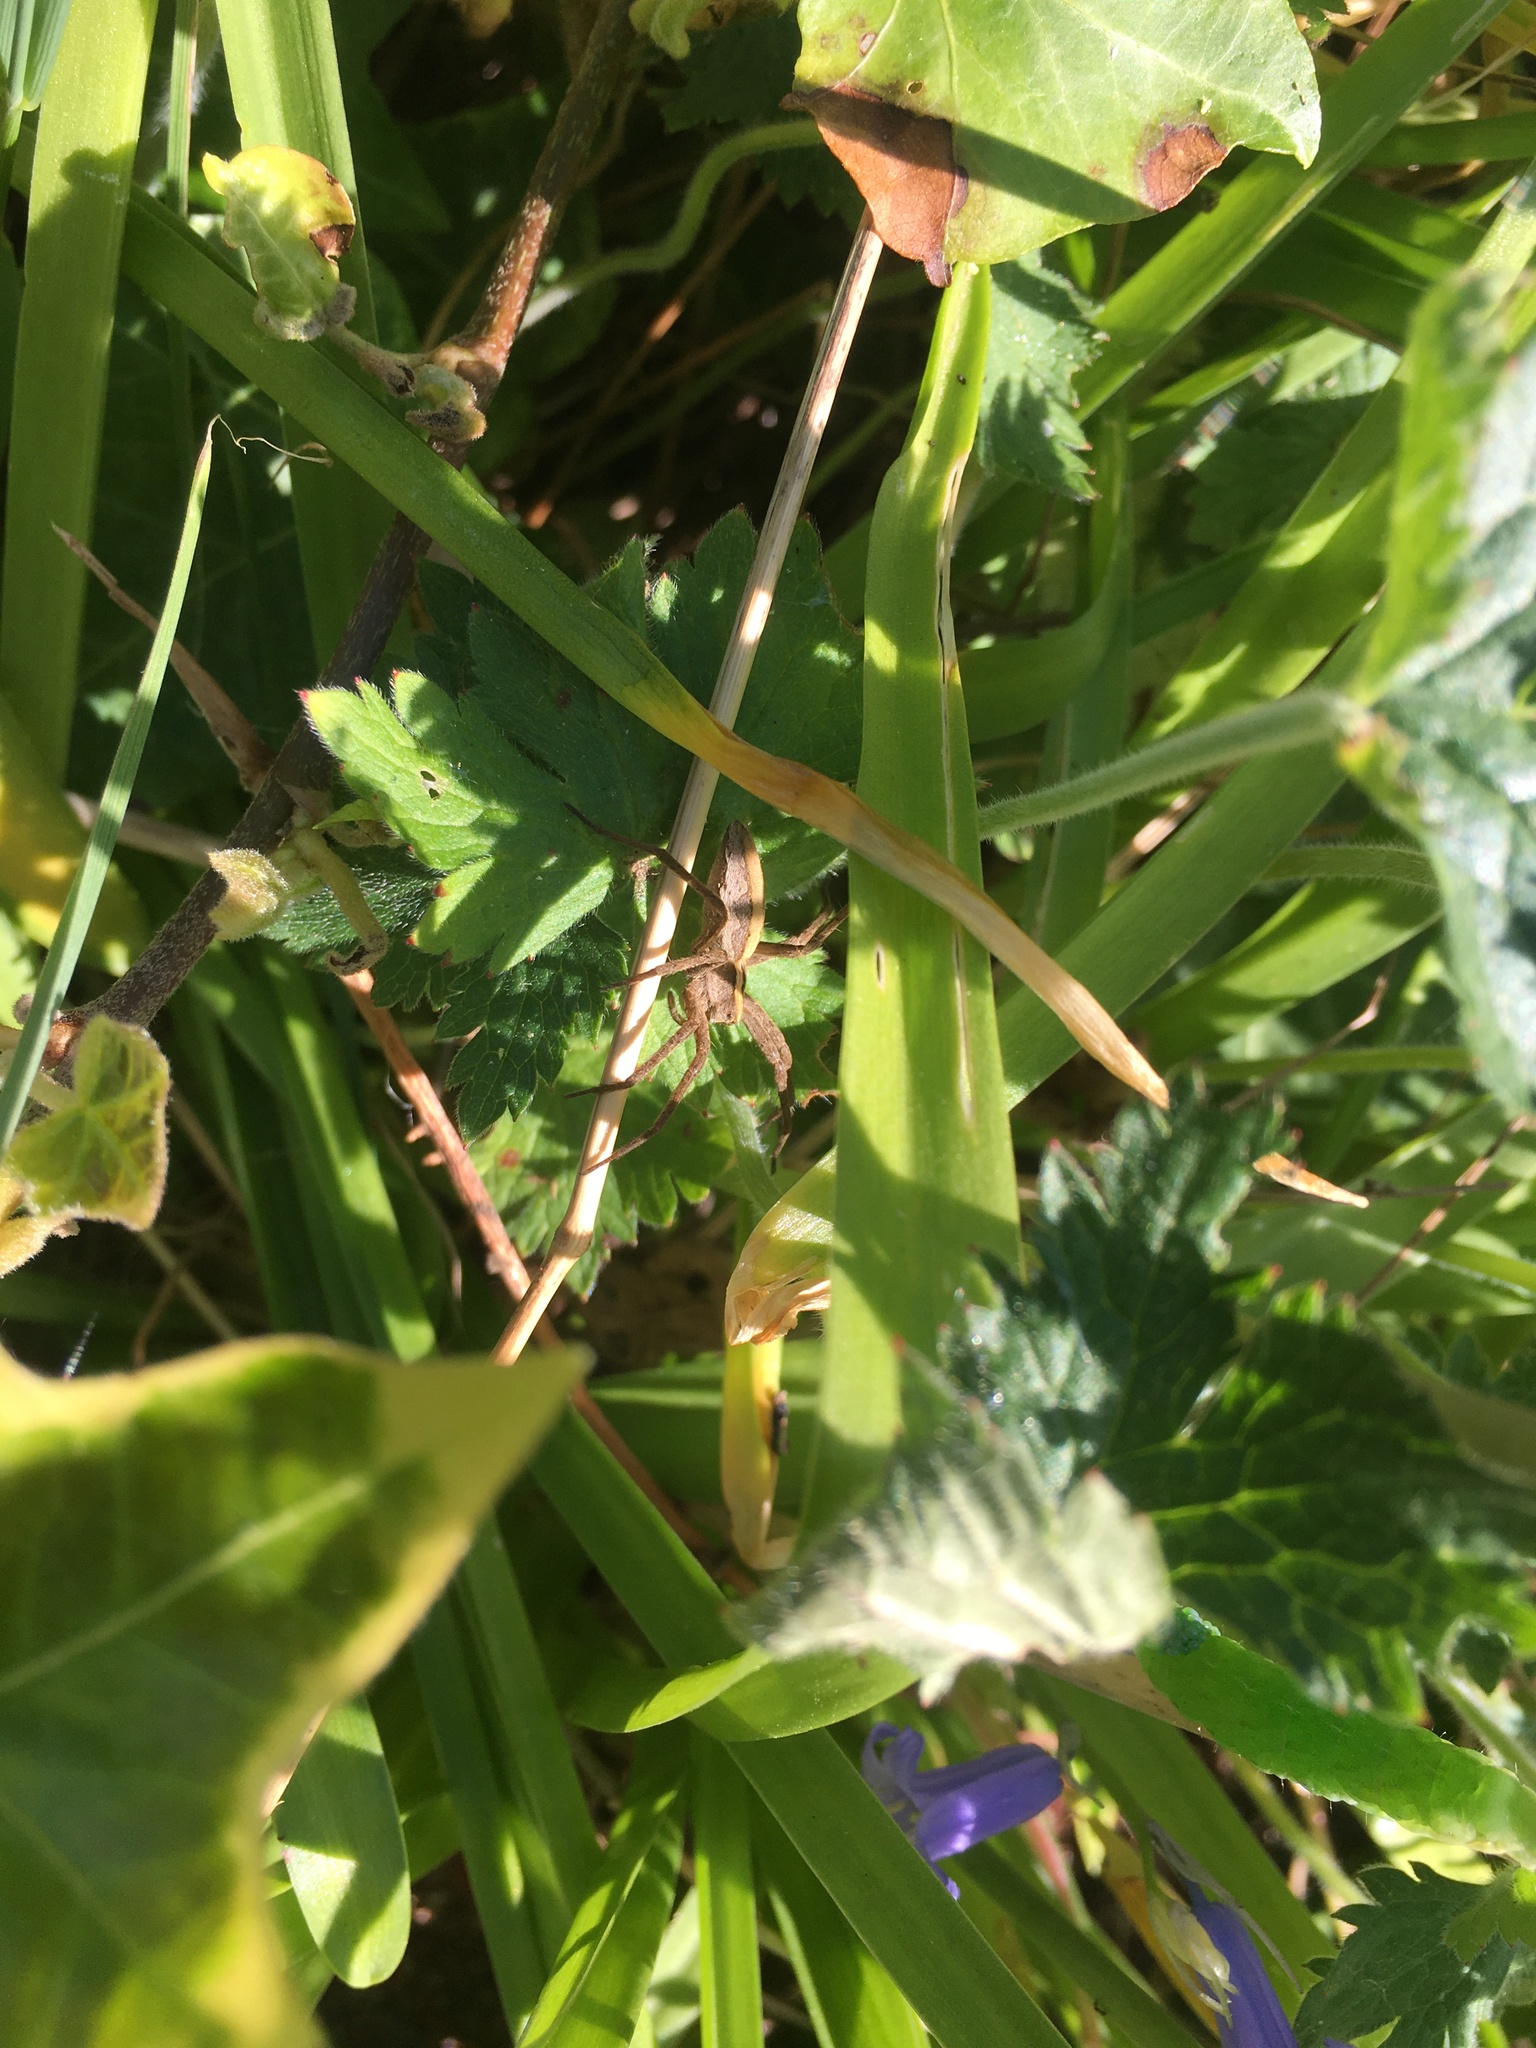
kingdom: Animalia
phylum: Arthropoda
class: Arachnida
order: Araneae
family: Pisauridae
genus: Pisaura
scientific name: Pisaura mirabilis
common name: Tent spider
